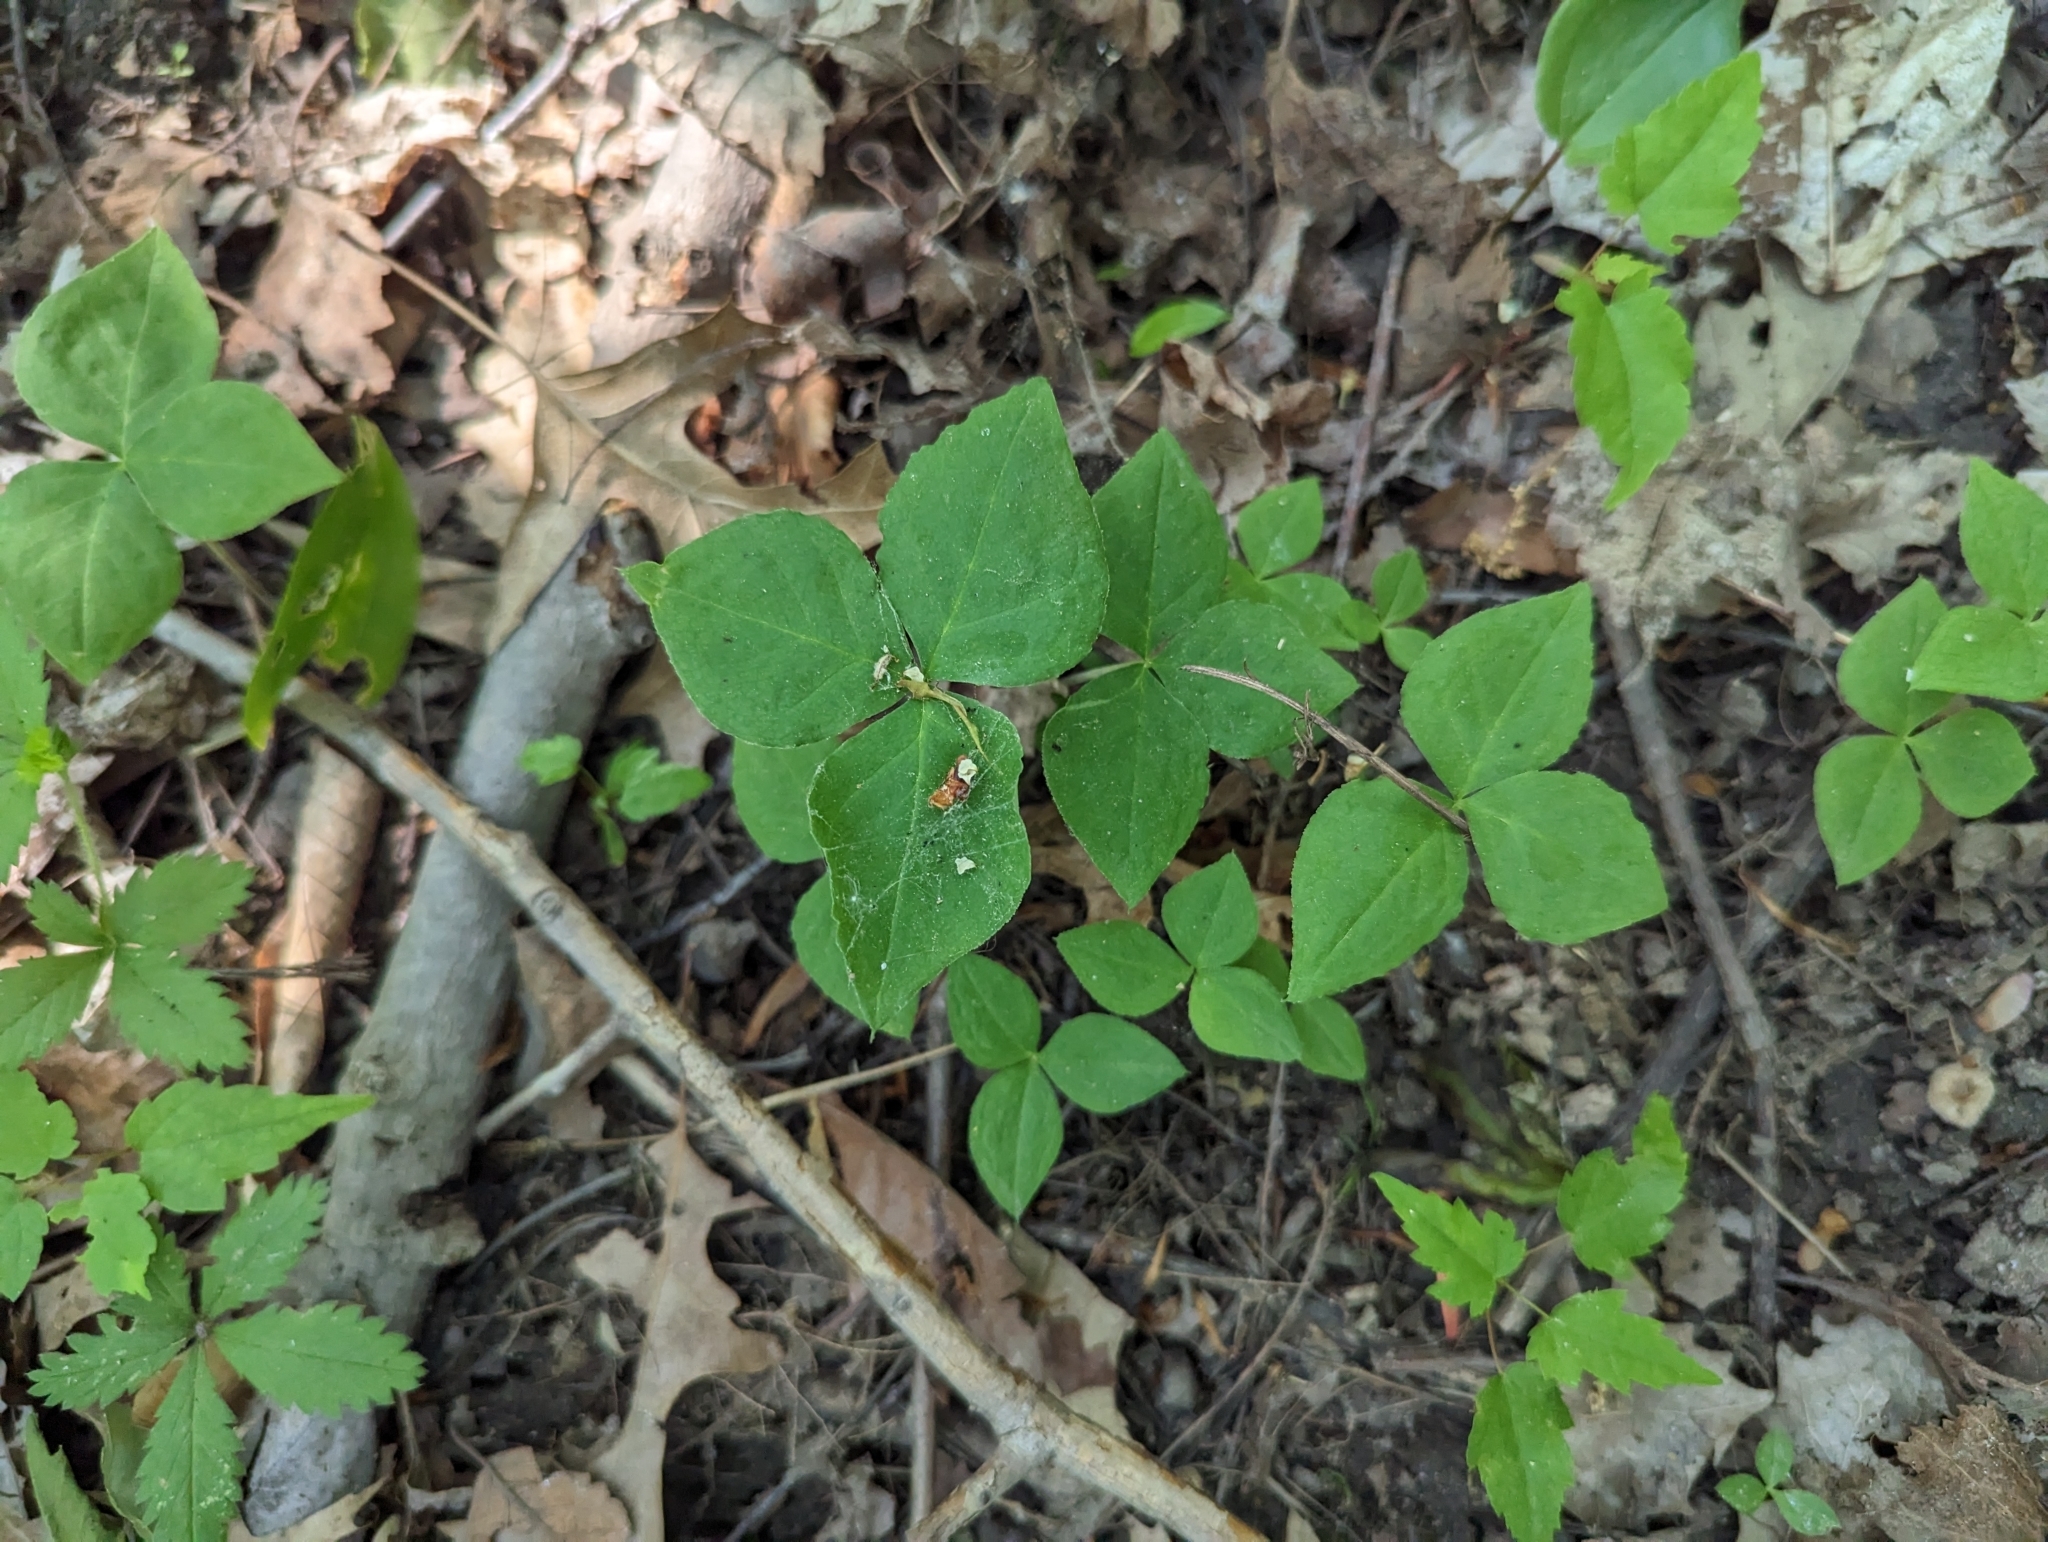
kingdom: Plantae
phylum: Tracheophyta
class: Liliopsida
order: Alismatales
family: Araceae
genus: Arisaema
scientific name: Arisaema triphyllum
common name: Jack-in-the-pulpit
